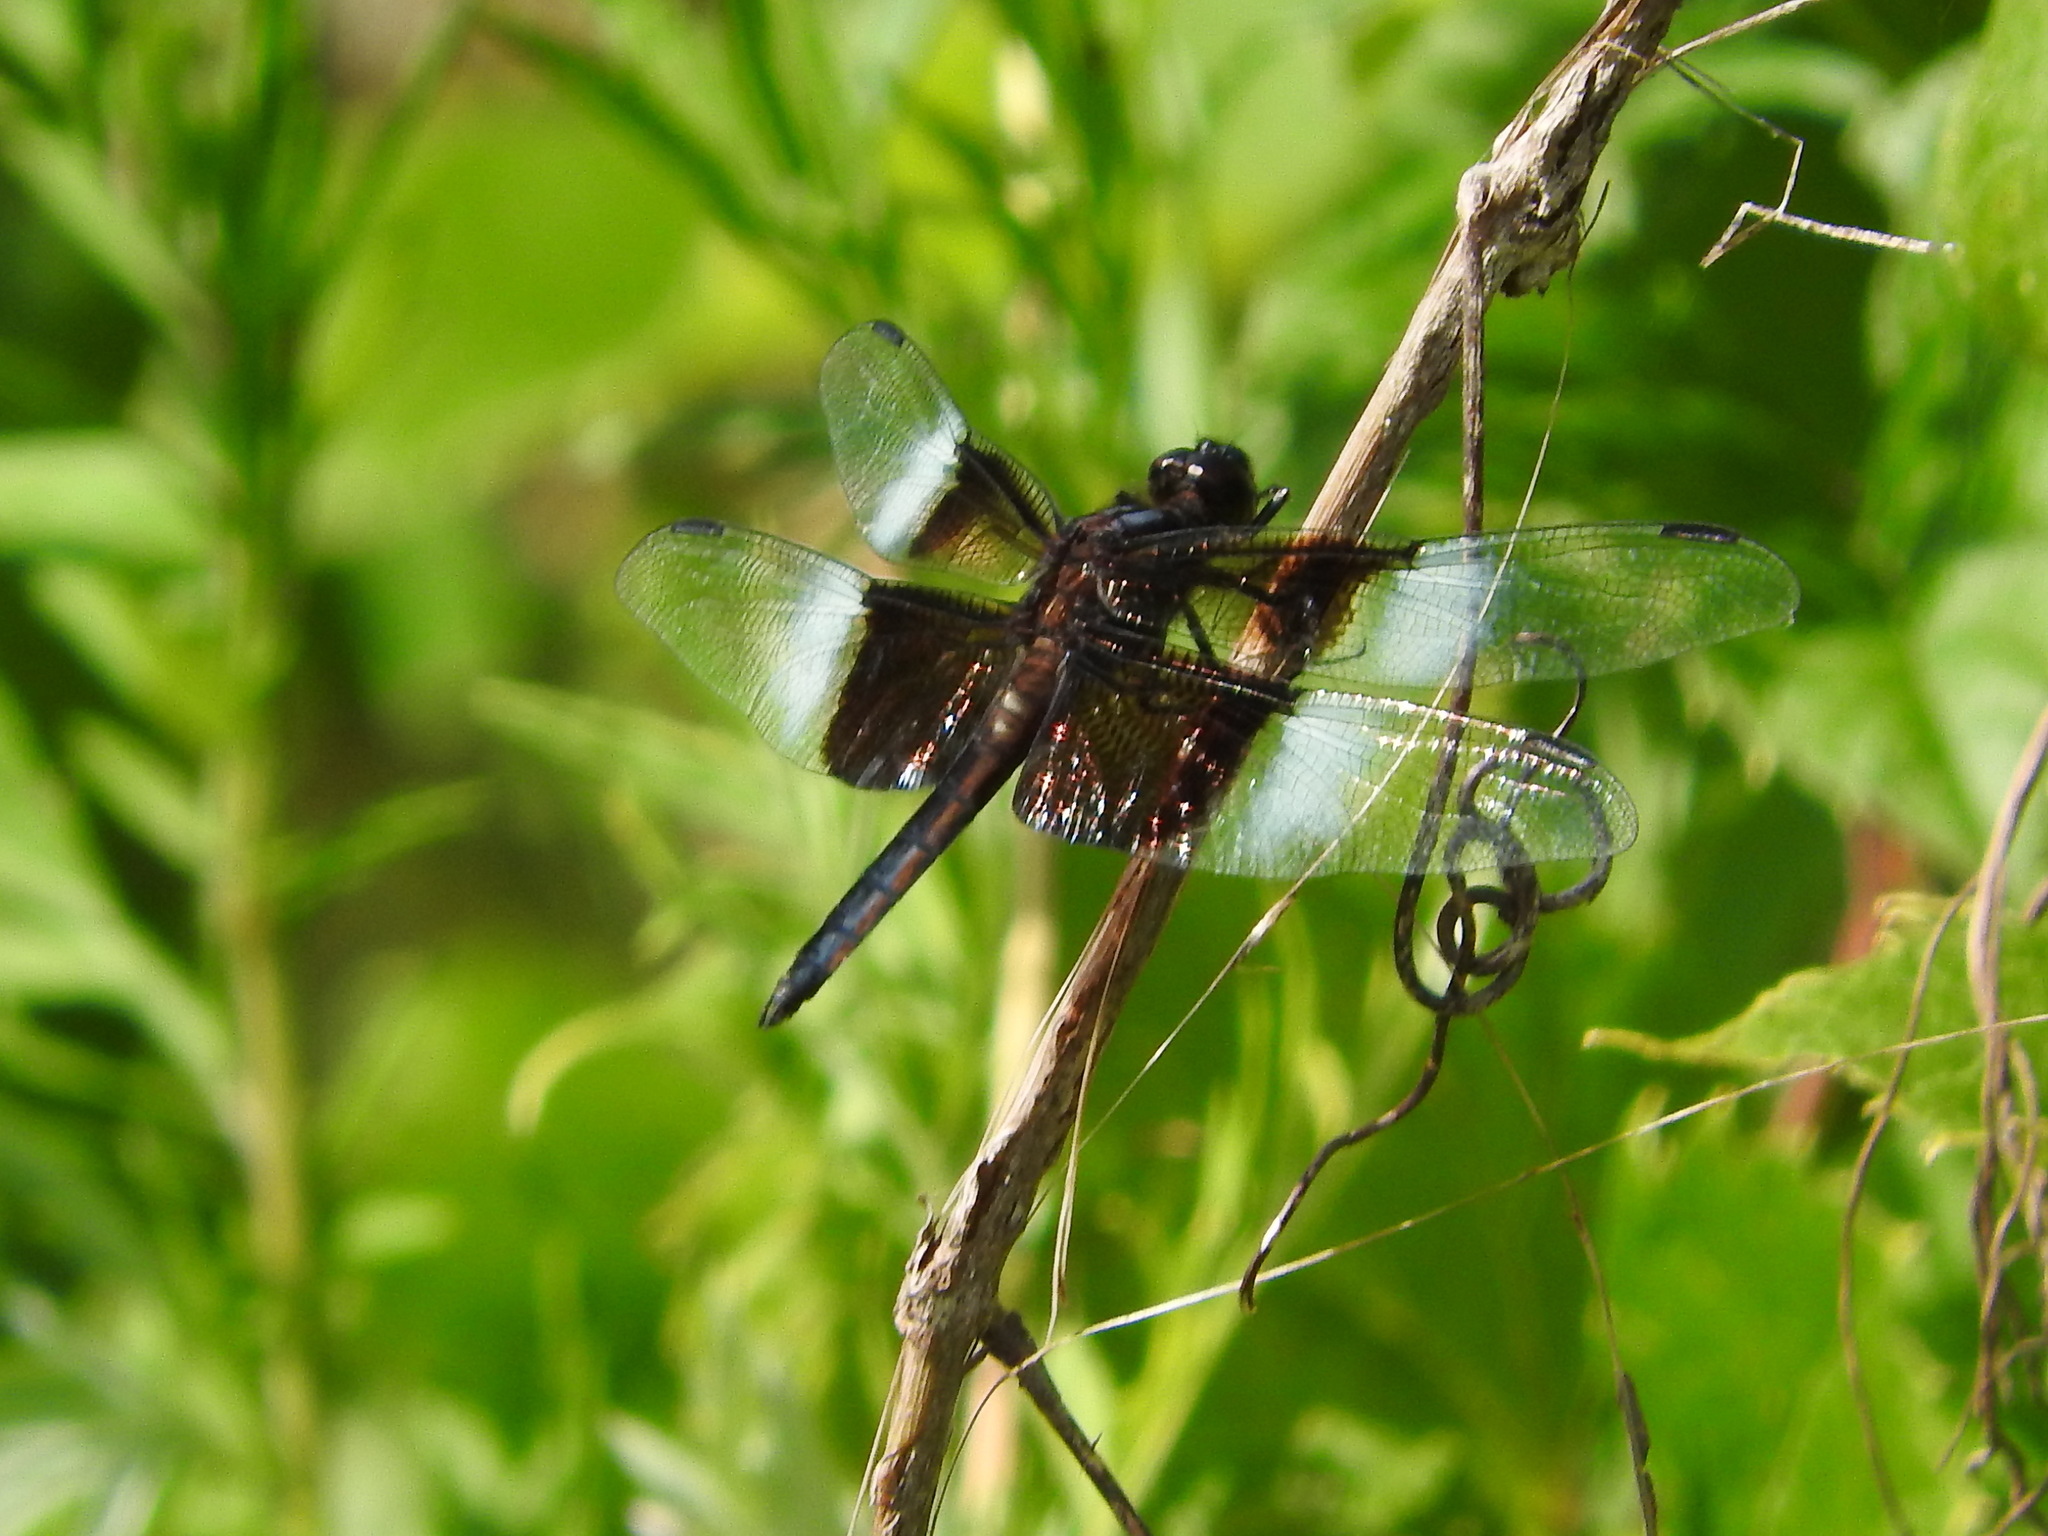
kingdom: Animalia
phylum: Arthropoda
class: Insecta
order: Odonata
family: Libellulidae
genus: Libellula
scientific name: Libellula luctuosa
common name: Widow skimmer
